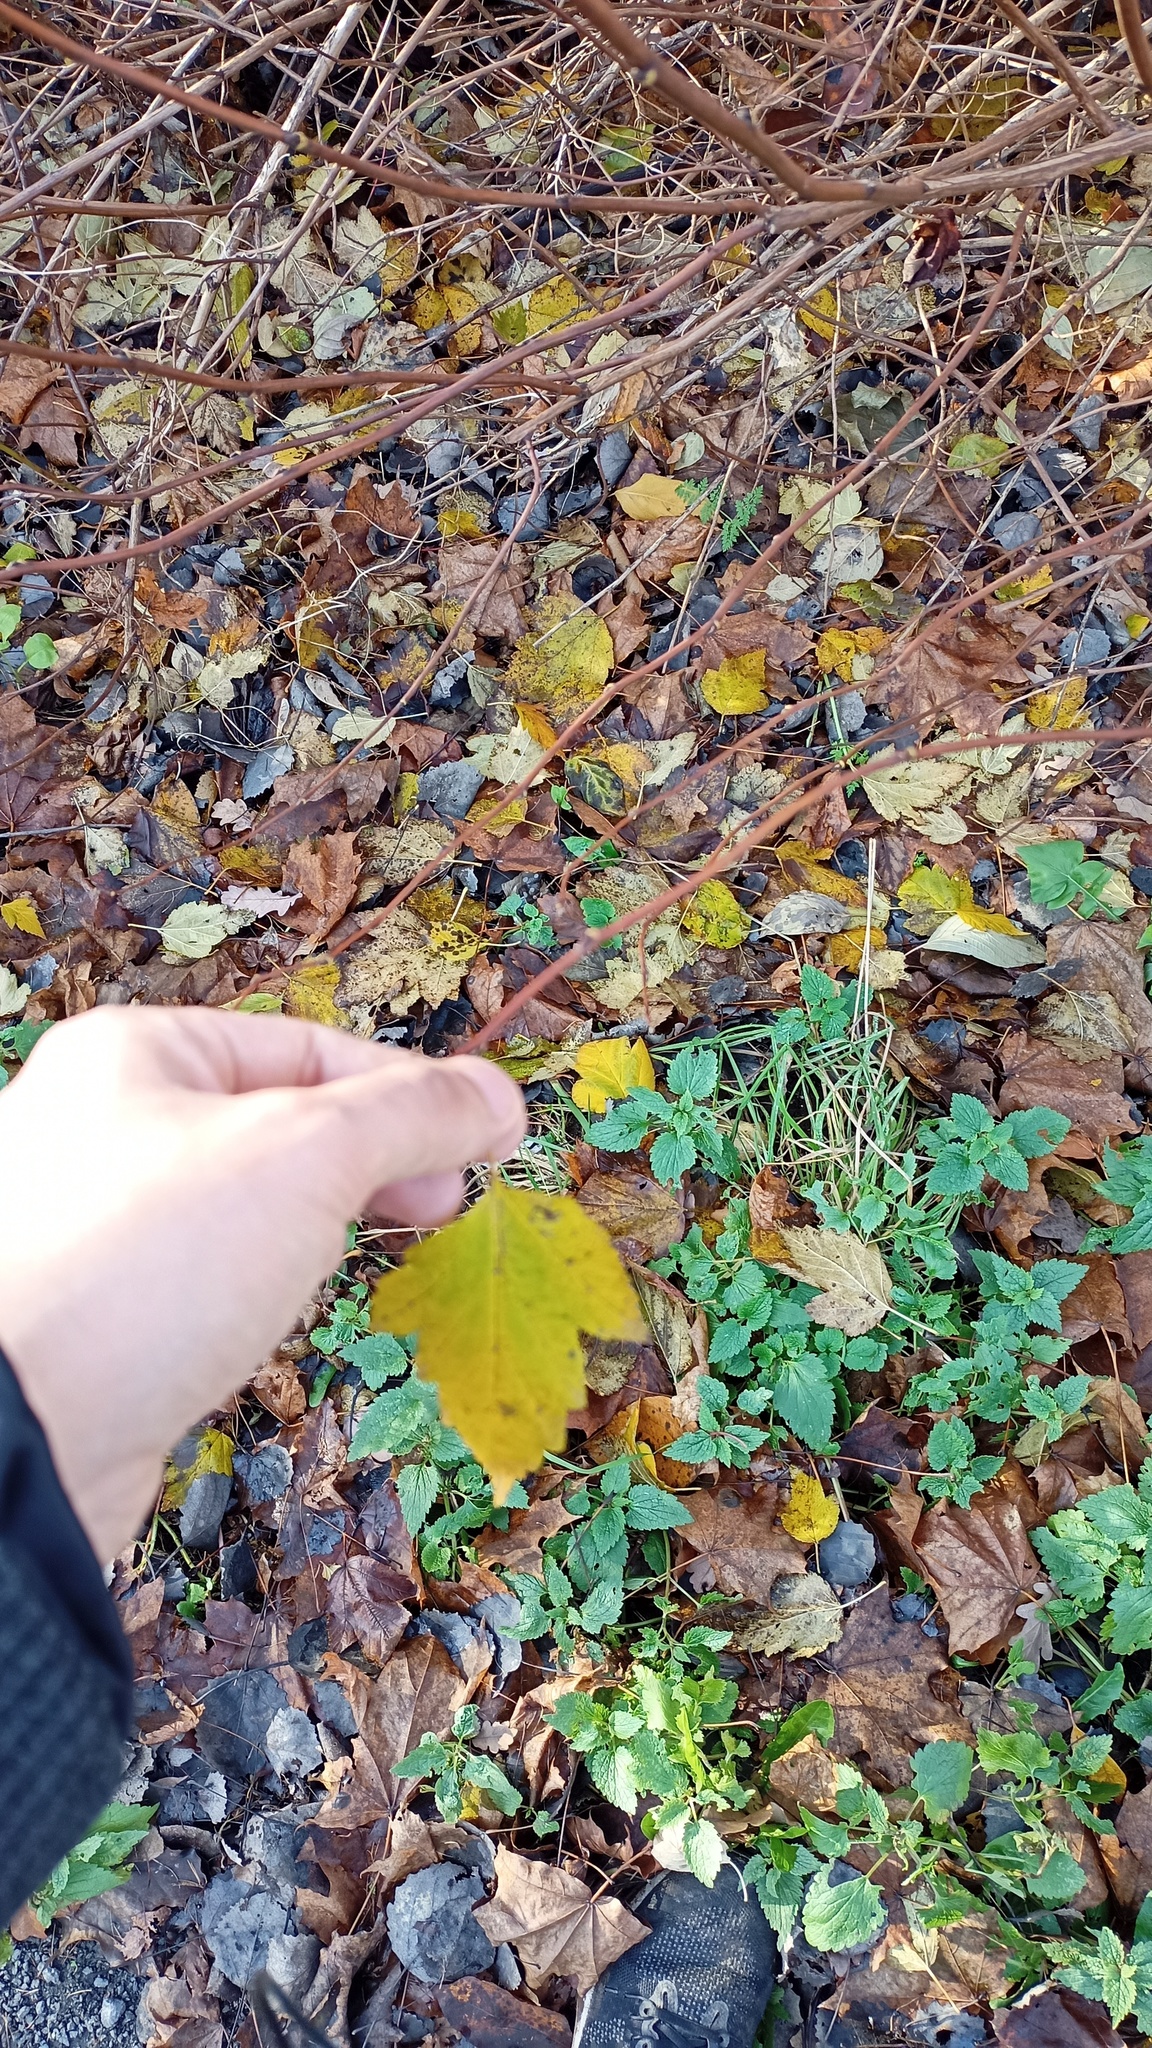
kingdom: Plantae
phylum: Tracheophyta
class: Magnoliopsida
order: Rosales
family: Rosaceae
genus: Physocarpus
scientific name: Physocarpus opulifolius
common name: Ninebark
